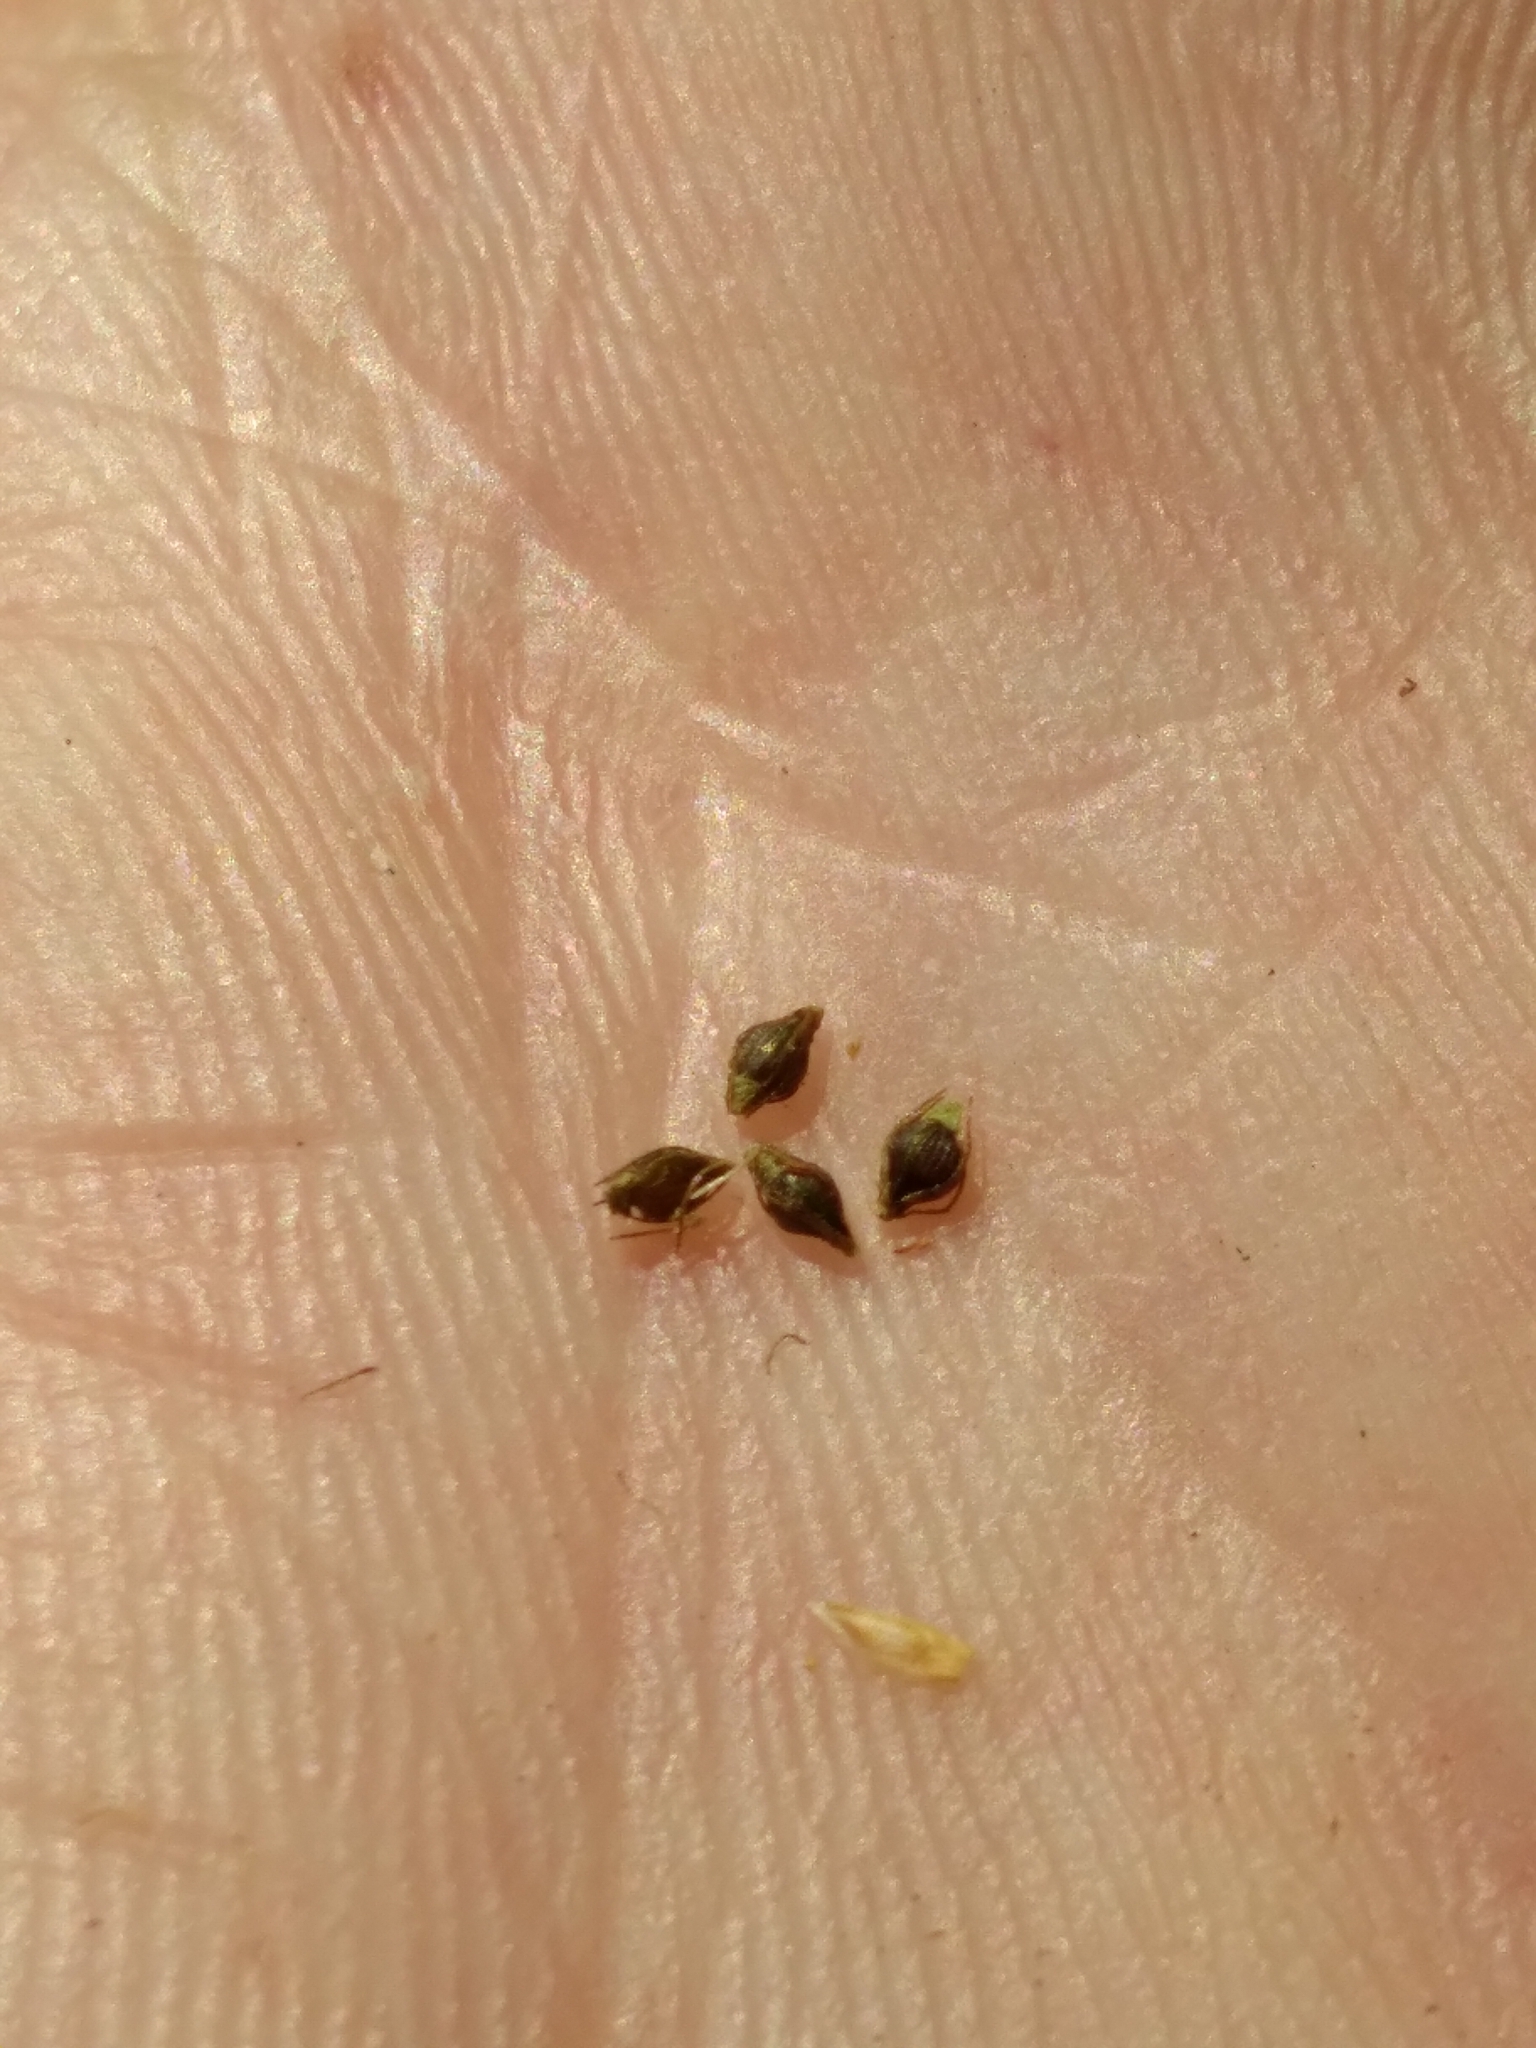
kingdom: Plantae
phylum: Tracheophyta
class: Liliopsida
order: Poales
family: Cyperaceae
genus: Eleocharis
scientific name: Eleocharis tortilis
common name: Twisted spike sedge
